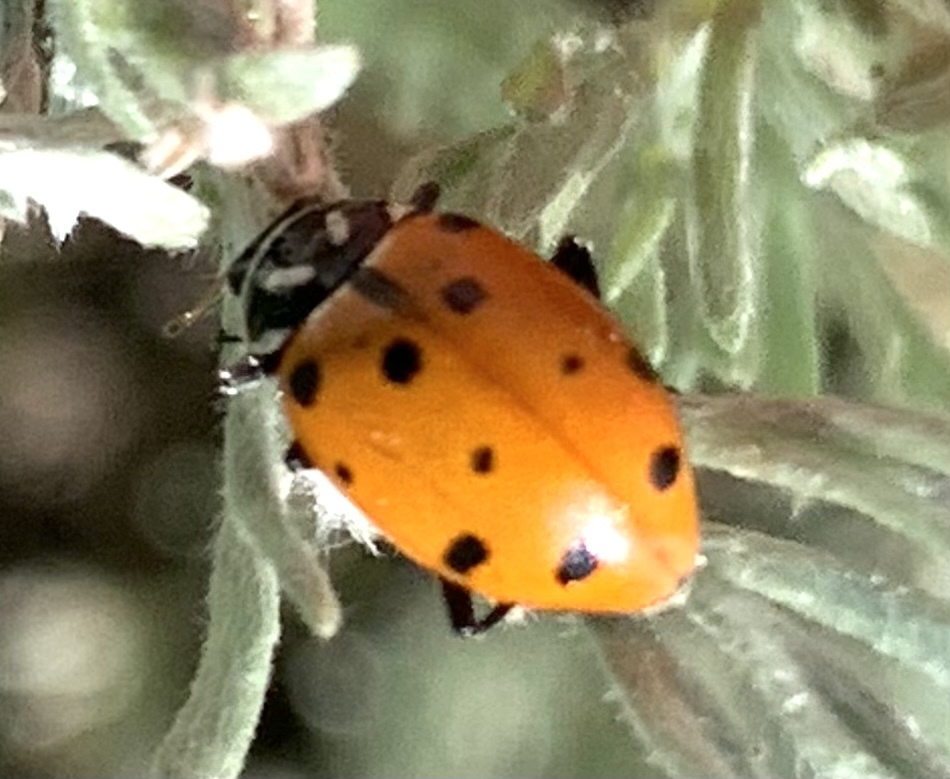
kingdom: Animalia
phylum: Arthropoda
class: Insecta
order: Coleoptera
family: Coccinellidae
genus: Hippodamia
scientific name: Hippodamia convergens
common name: Convergent lady beetle
